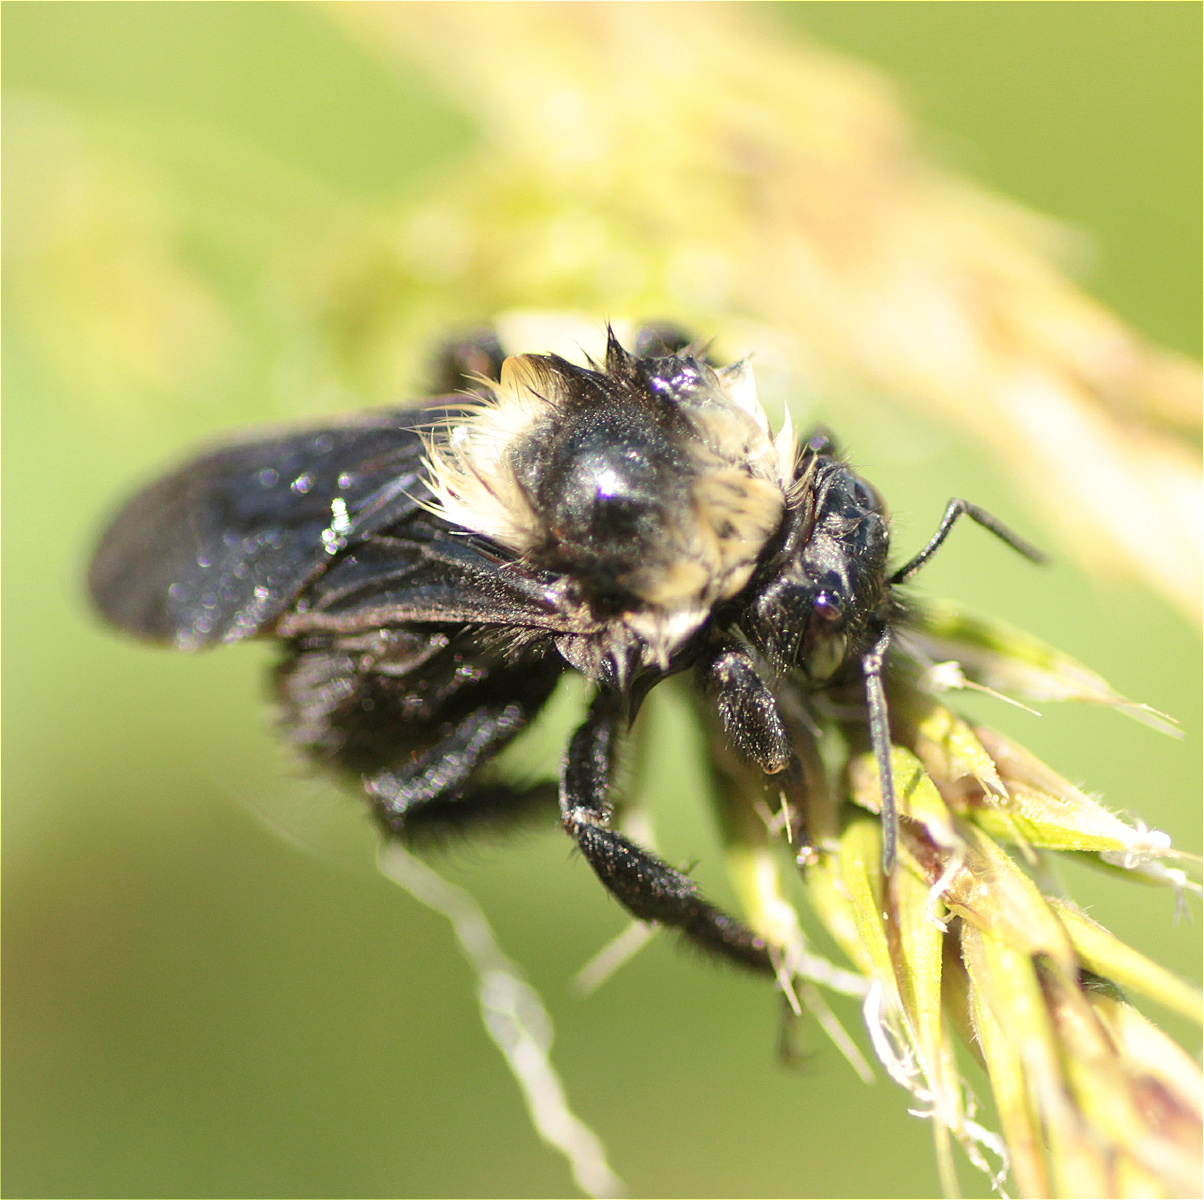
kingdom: Animalia
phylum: Arthropoda
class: Insecta
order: Hymenoptera
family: Apidae
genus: Bombus
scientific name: Bombus pauloensis
